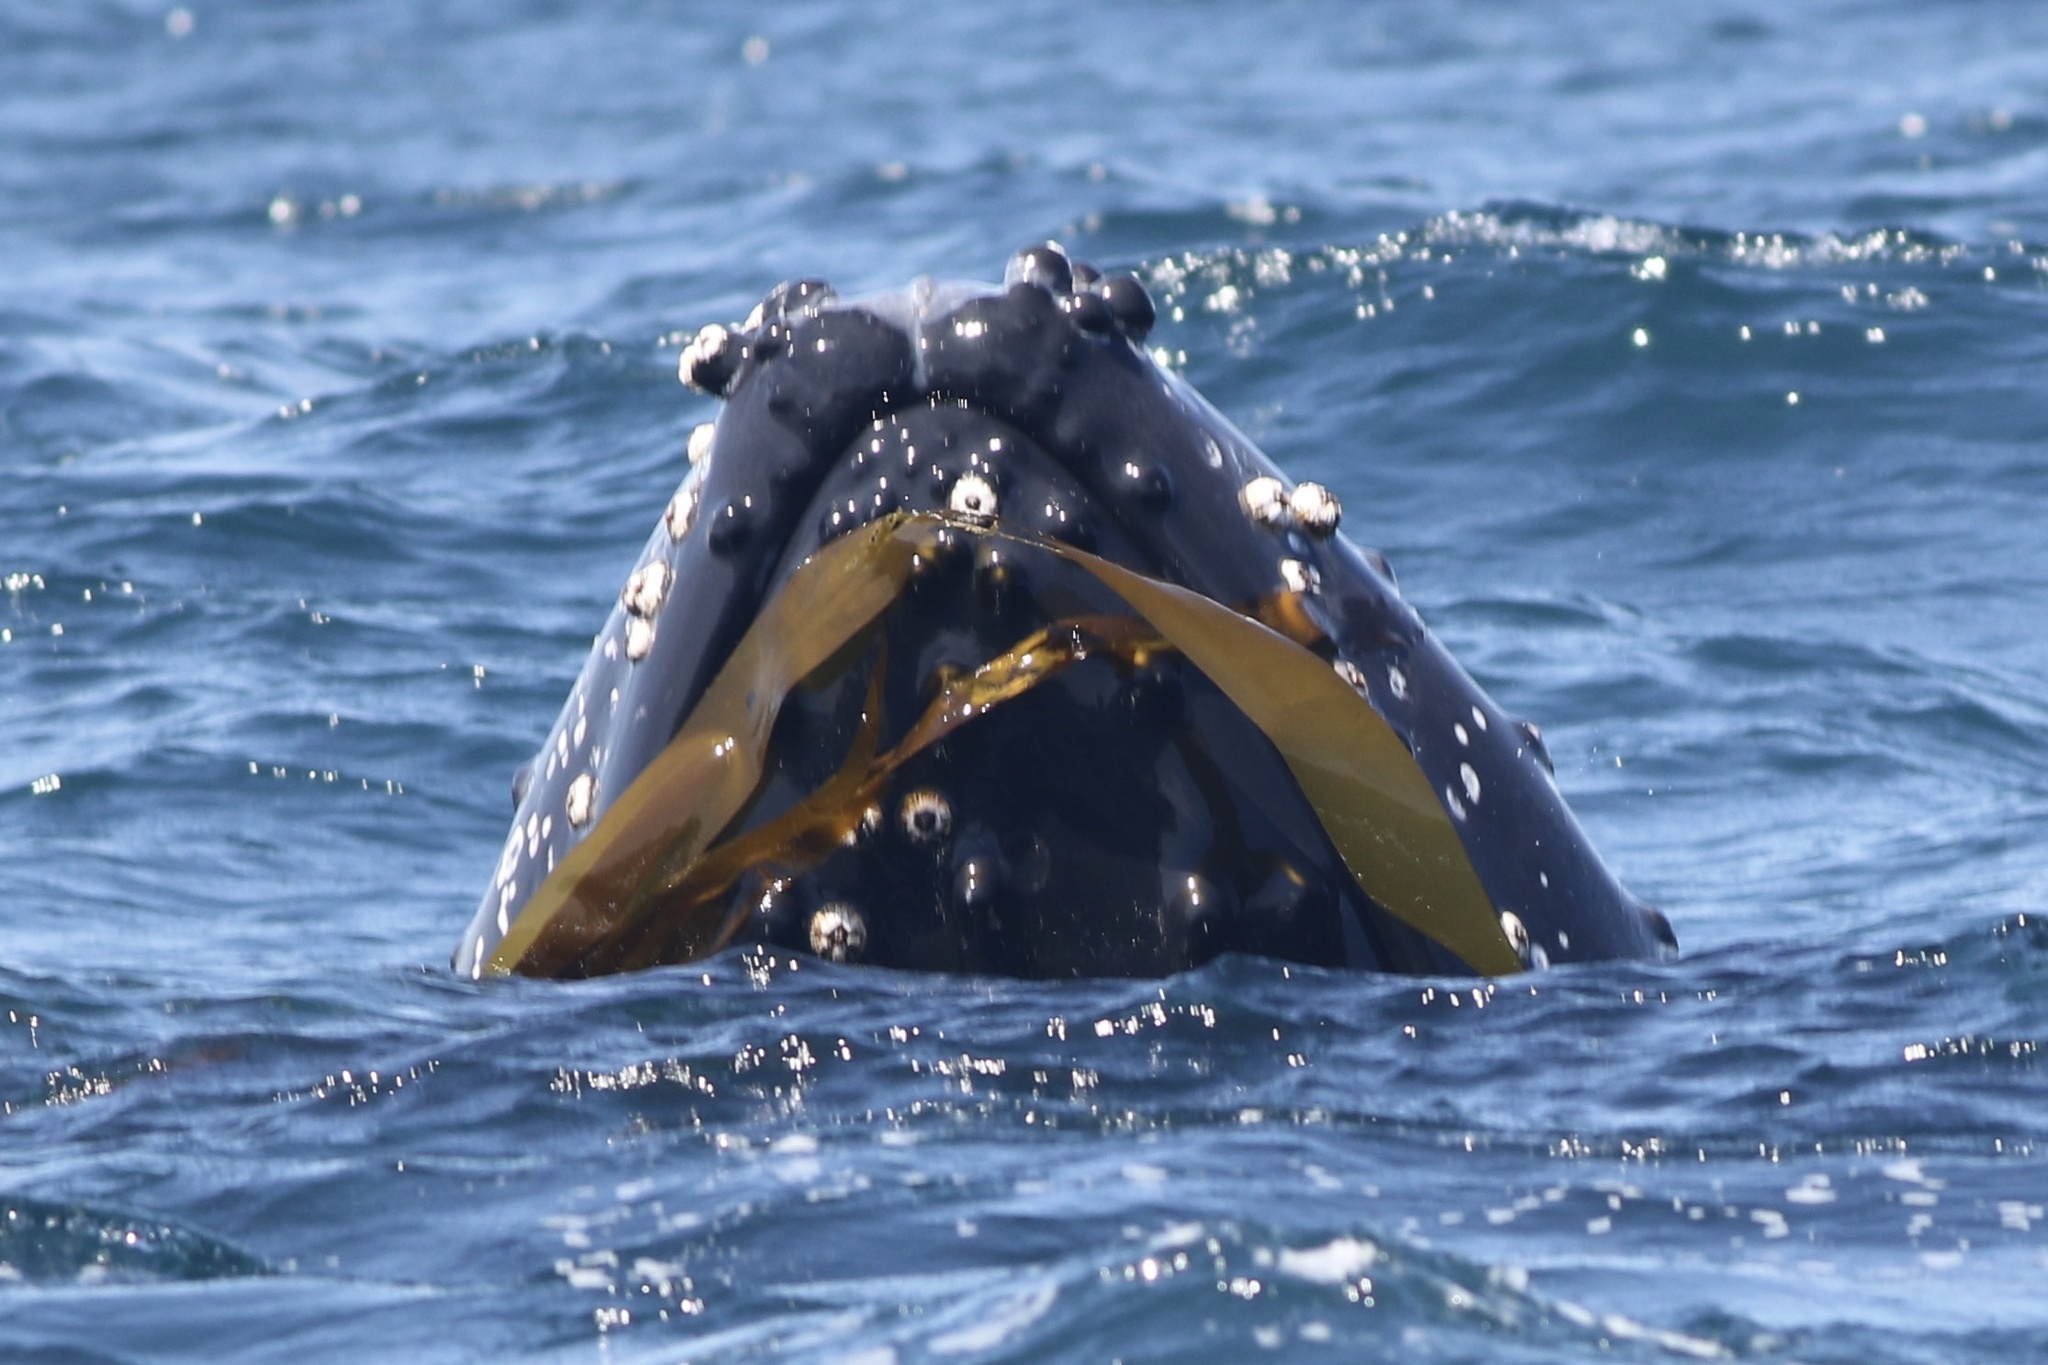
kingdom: Animalia
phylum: Chordata
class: Mammalia
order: Cetacea
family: Balaenopteridae
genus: Megaptera
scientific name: Megaptera novaeangliae
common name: Humpback whale
